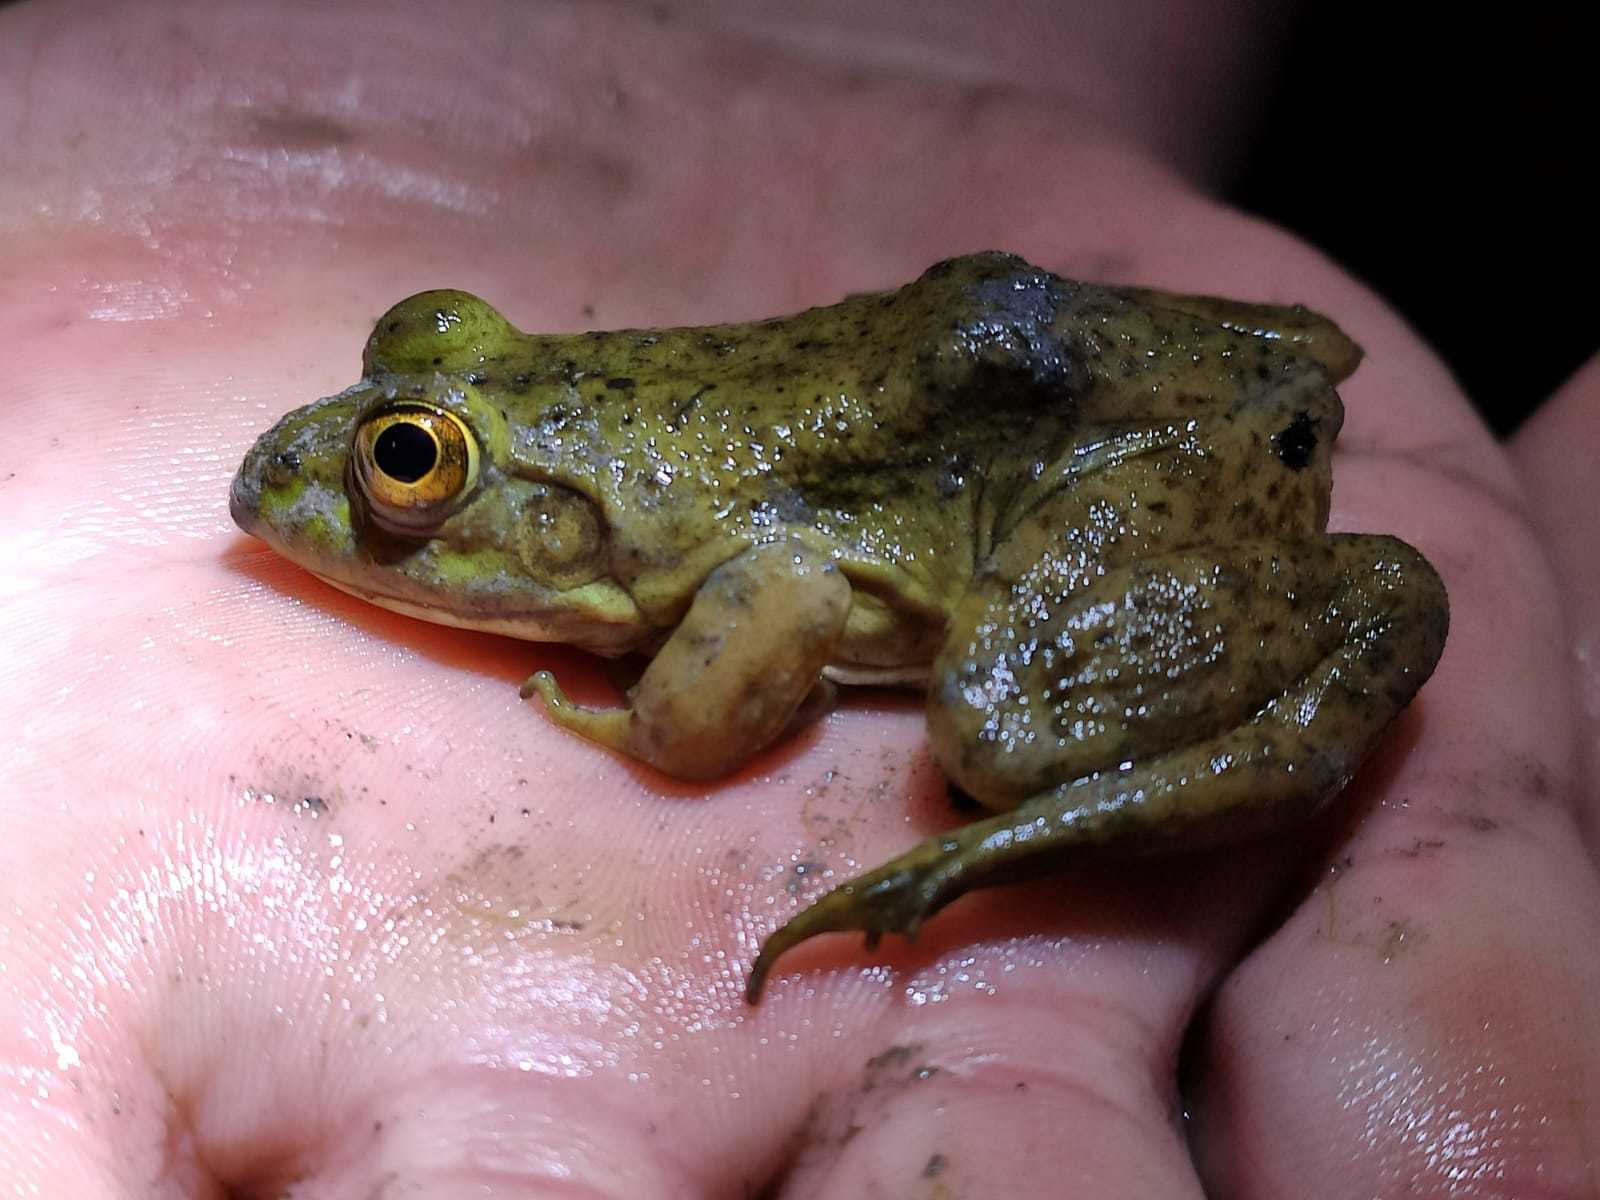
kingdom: Animalia
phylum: Chordata
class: Amphibia
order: Anura
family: Ranidae
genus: Lithobates
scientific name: Lithobates catesbeianus
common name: American bullfrog
